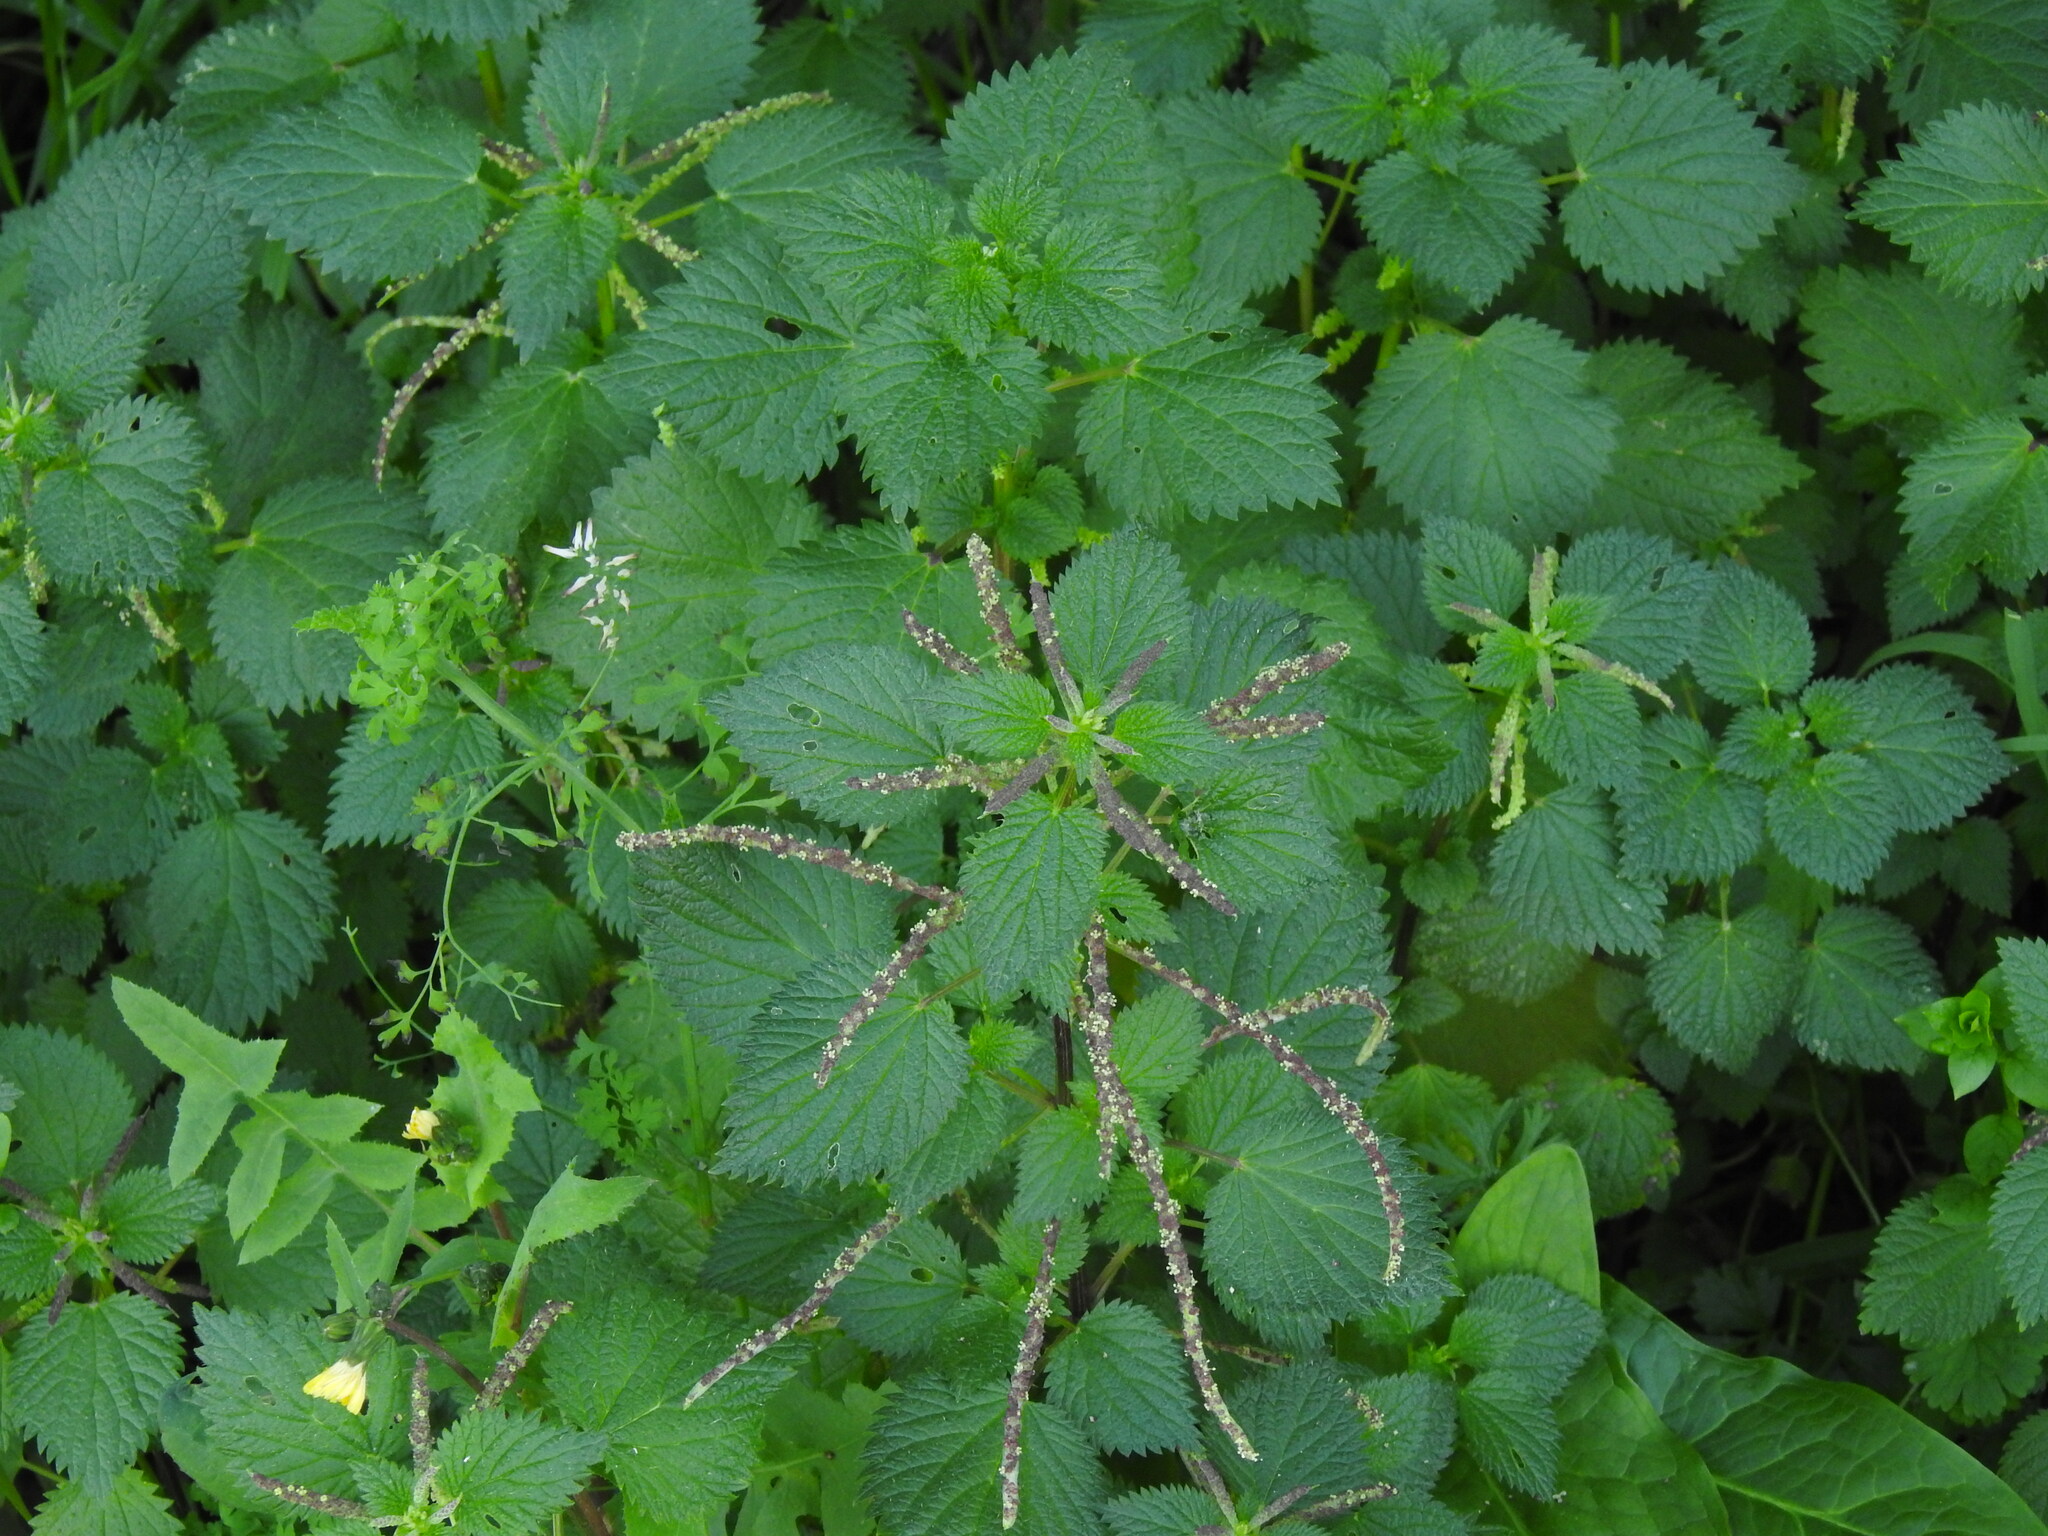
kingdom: Plantae
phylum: Tracheophyta
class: Magnoliopsida
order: Rosales
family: Urticaceae
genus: Urtica
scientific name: Urtica membranacea
